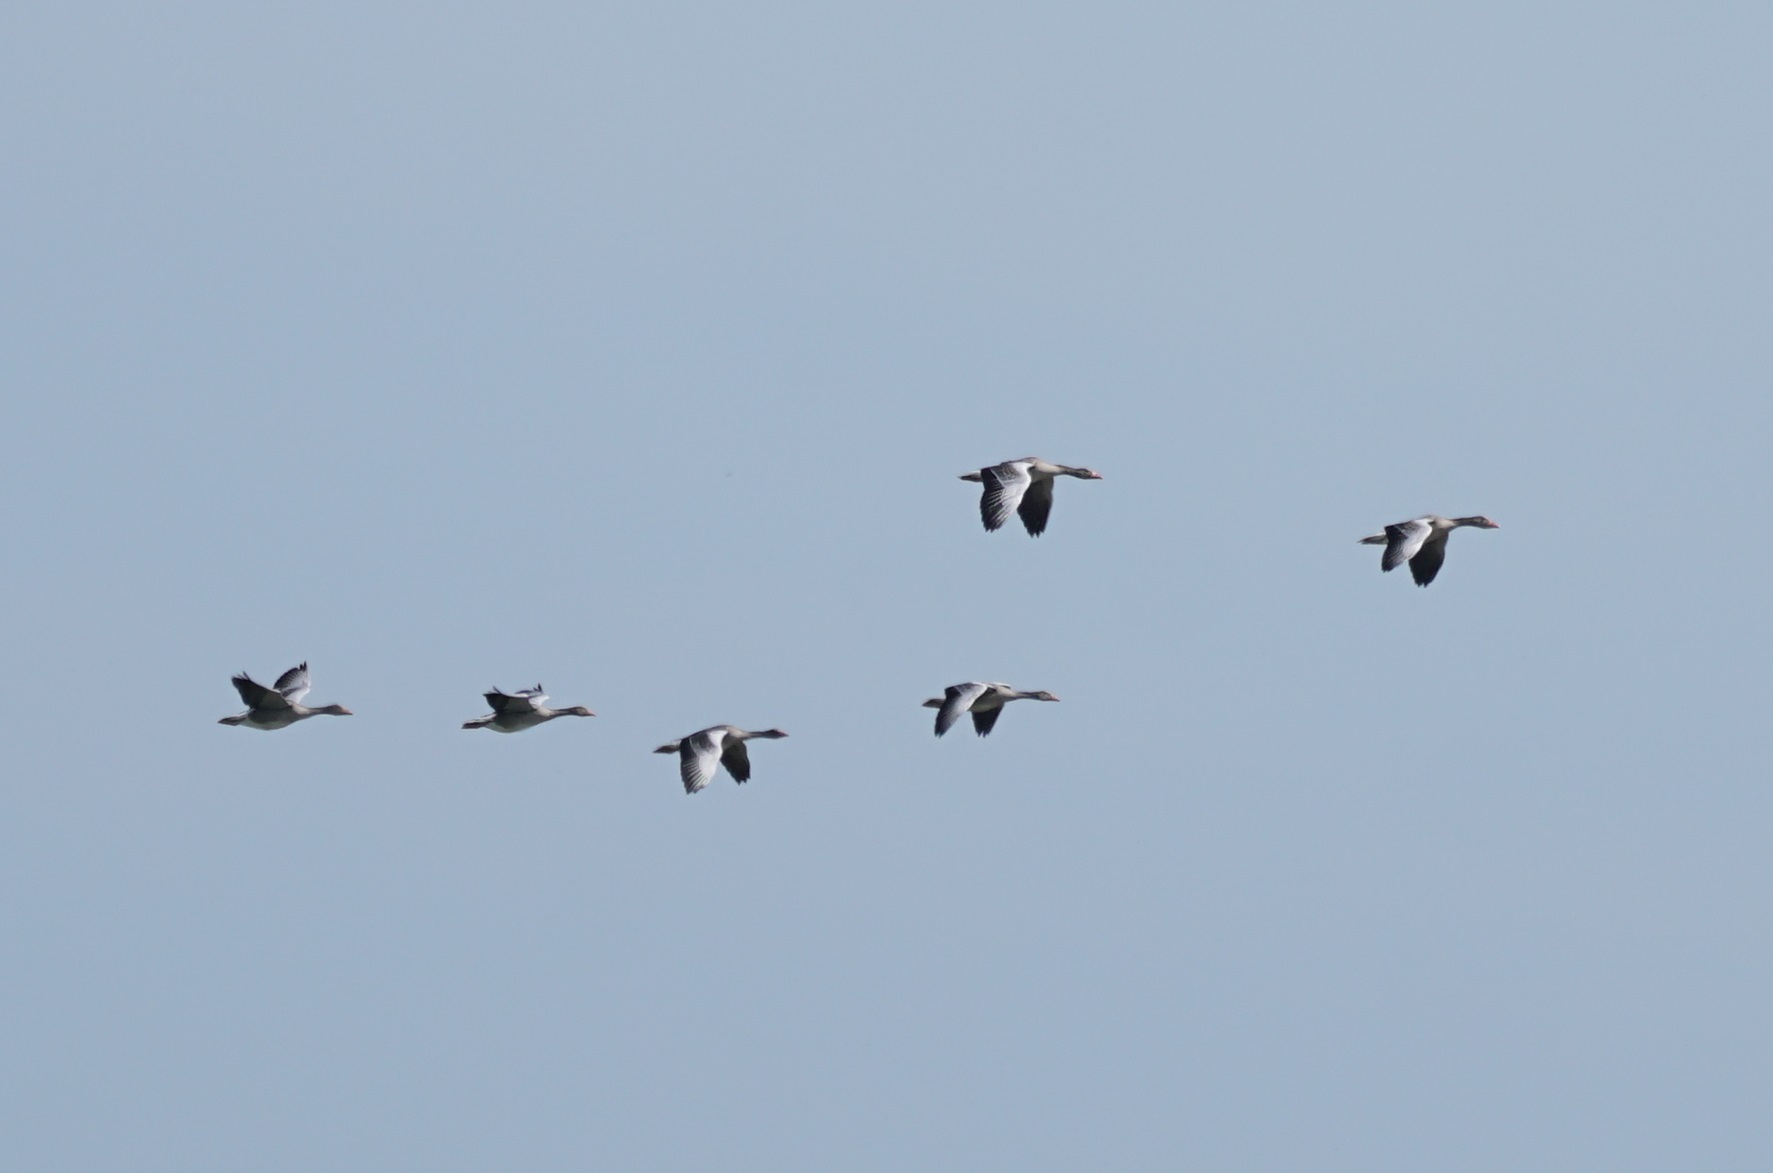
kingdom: Animalia
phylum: Chordata
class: Aves
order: Anseriformes
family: Anatidae
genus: Anser
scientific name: Anser anser
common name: Greylag goose
